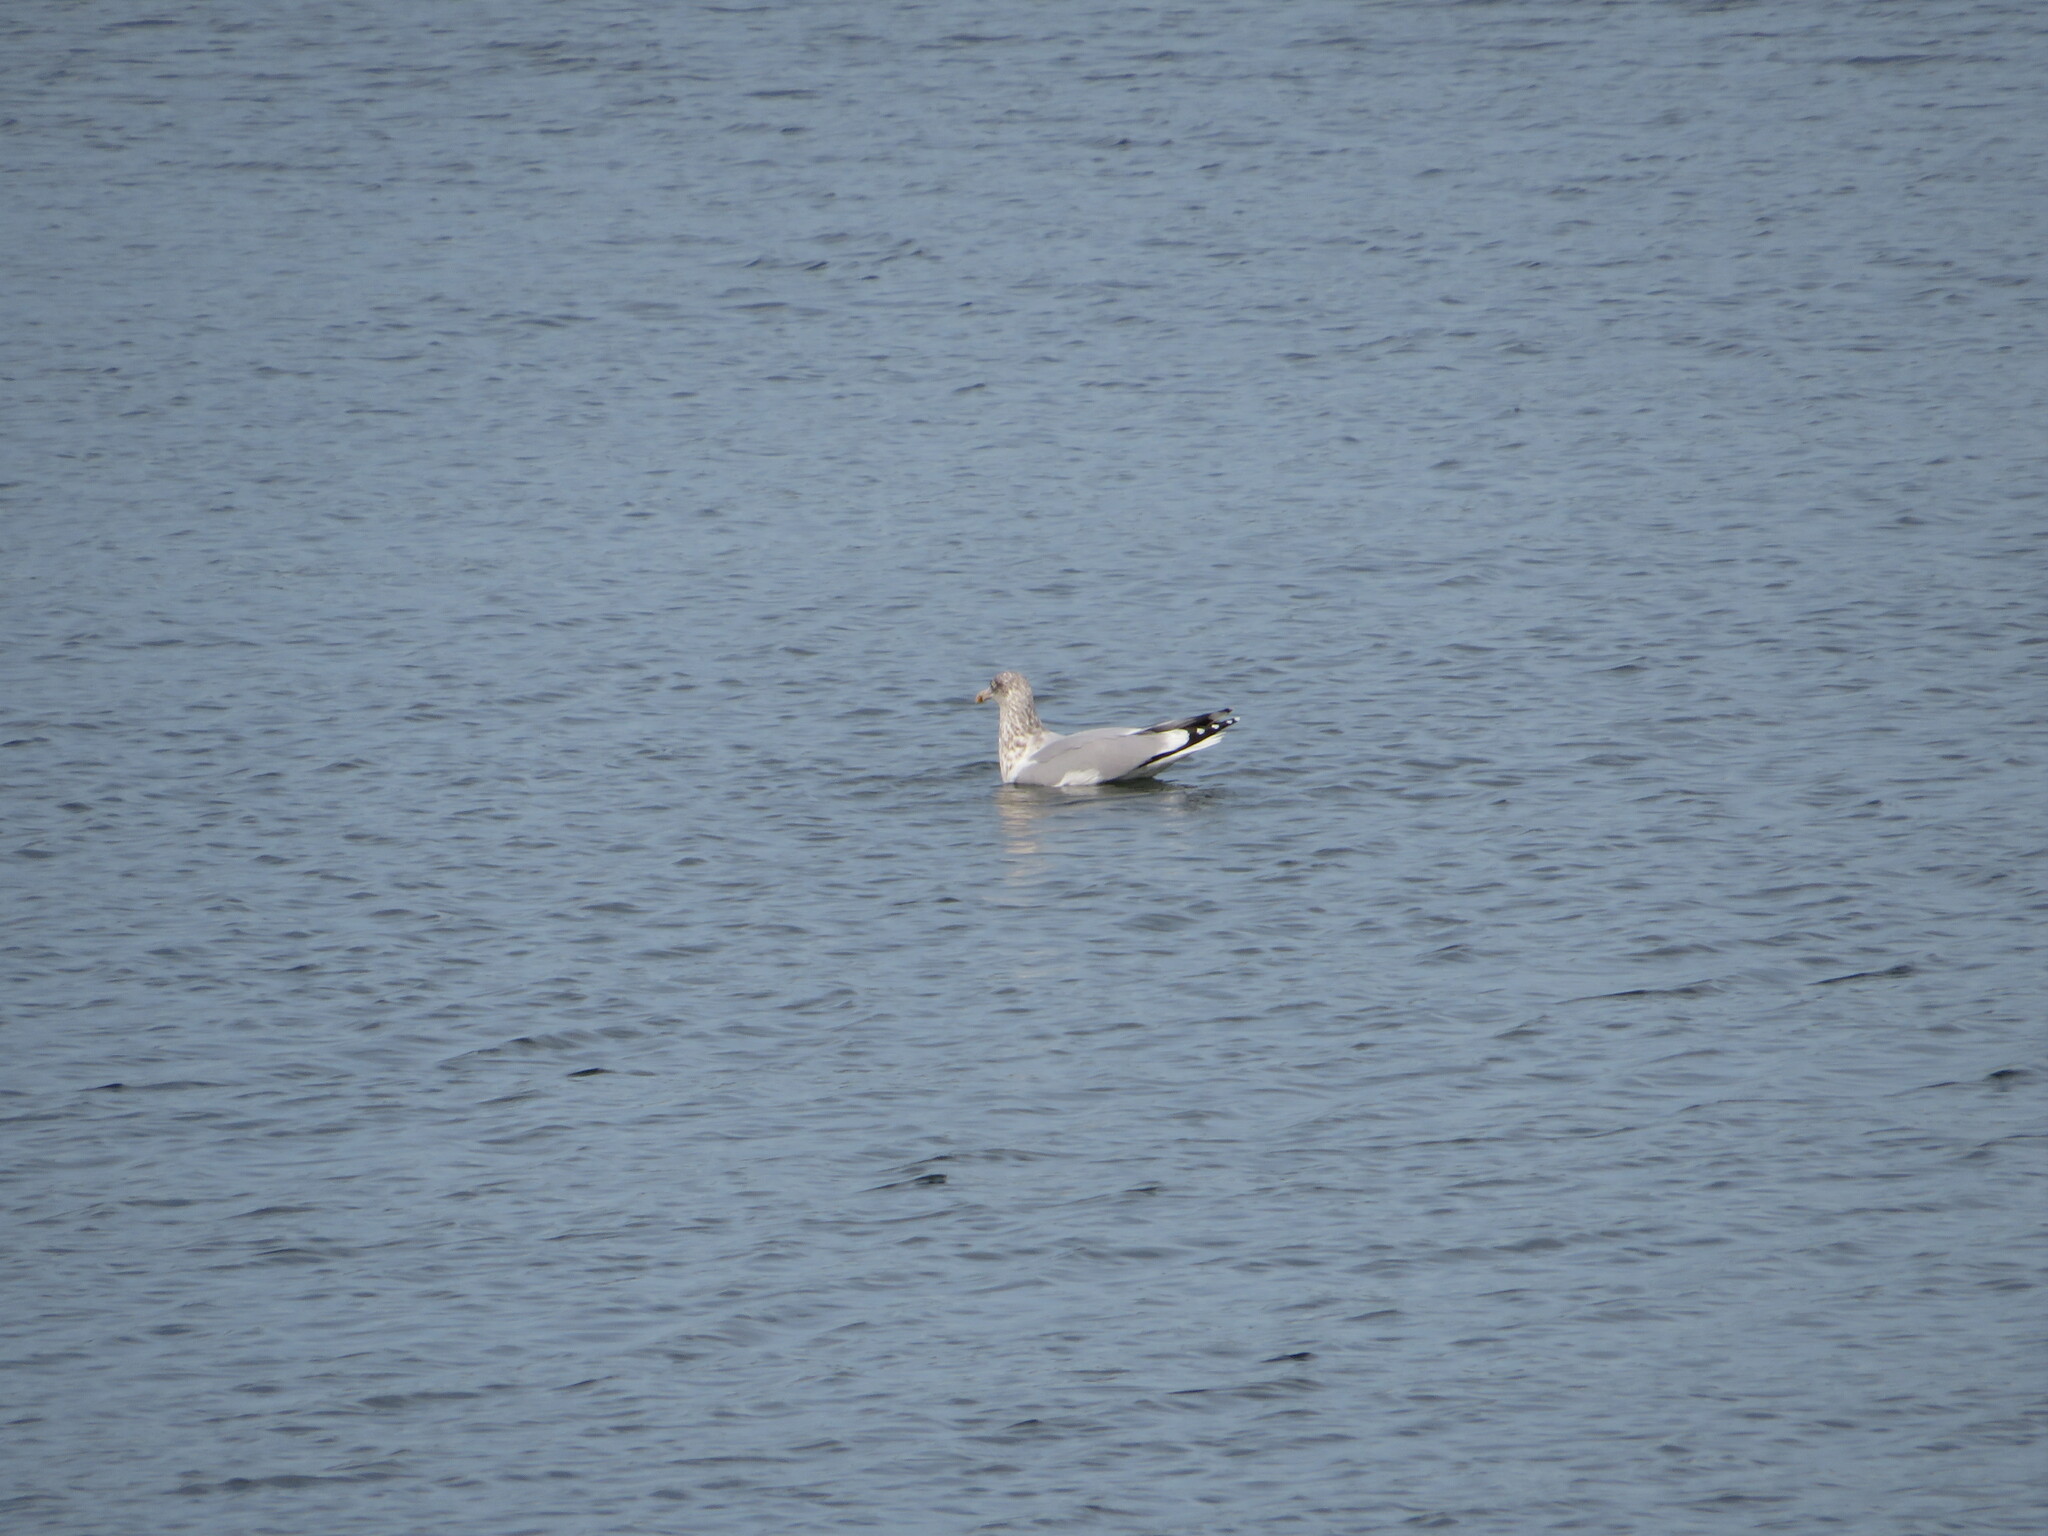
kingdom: Animalia
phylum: Chordata
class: Aves
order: Charadriiformes
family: Laridae
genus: Larus
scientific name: Larus argentatus
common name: Herring gull
